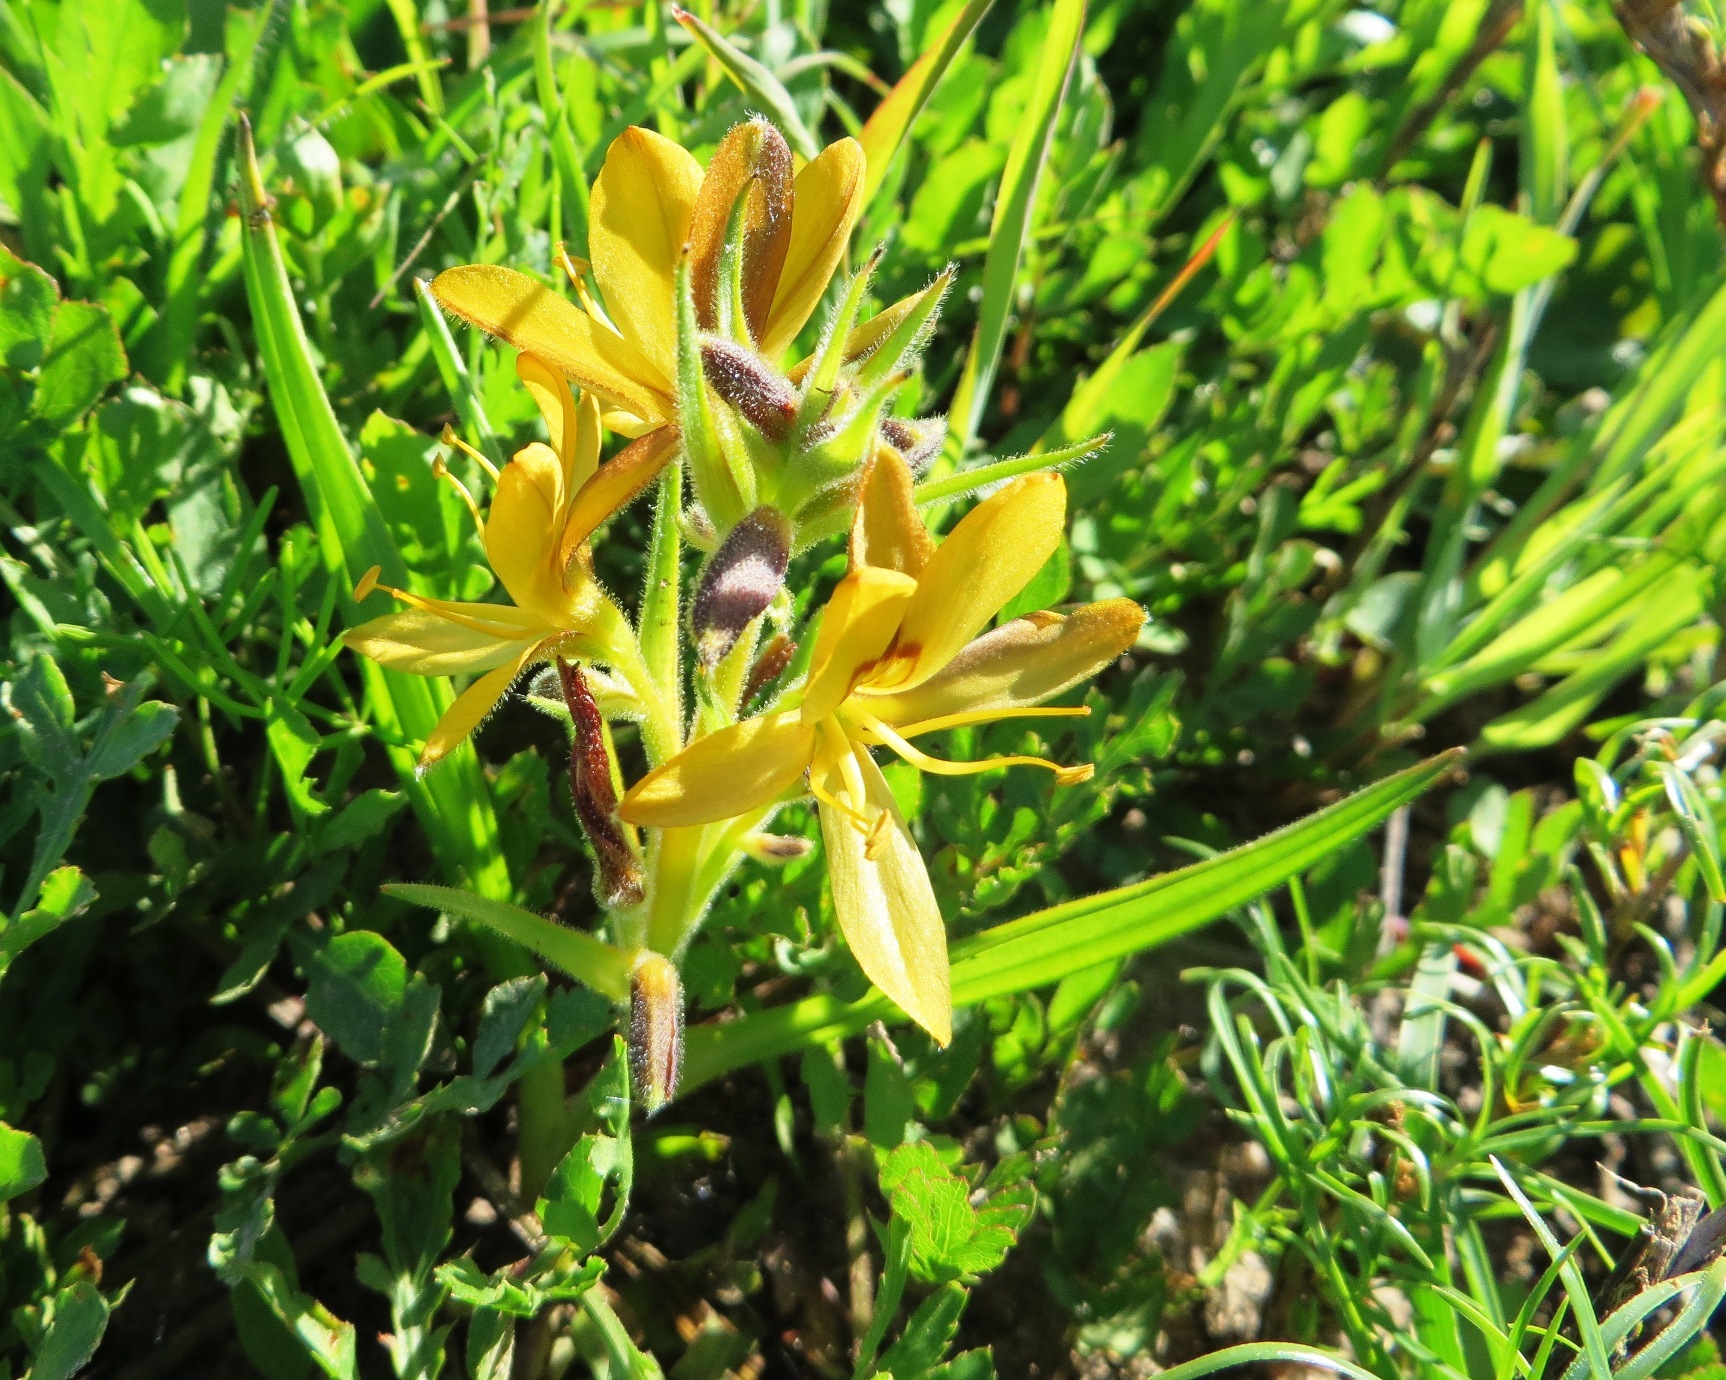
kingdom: Plantae
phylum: Tracheophyta
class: Liliopsida
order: Commelinales
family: Haemodoraceae
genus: Wachendorfia
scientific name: Wachendorfia multiflora
